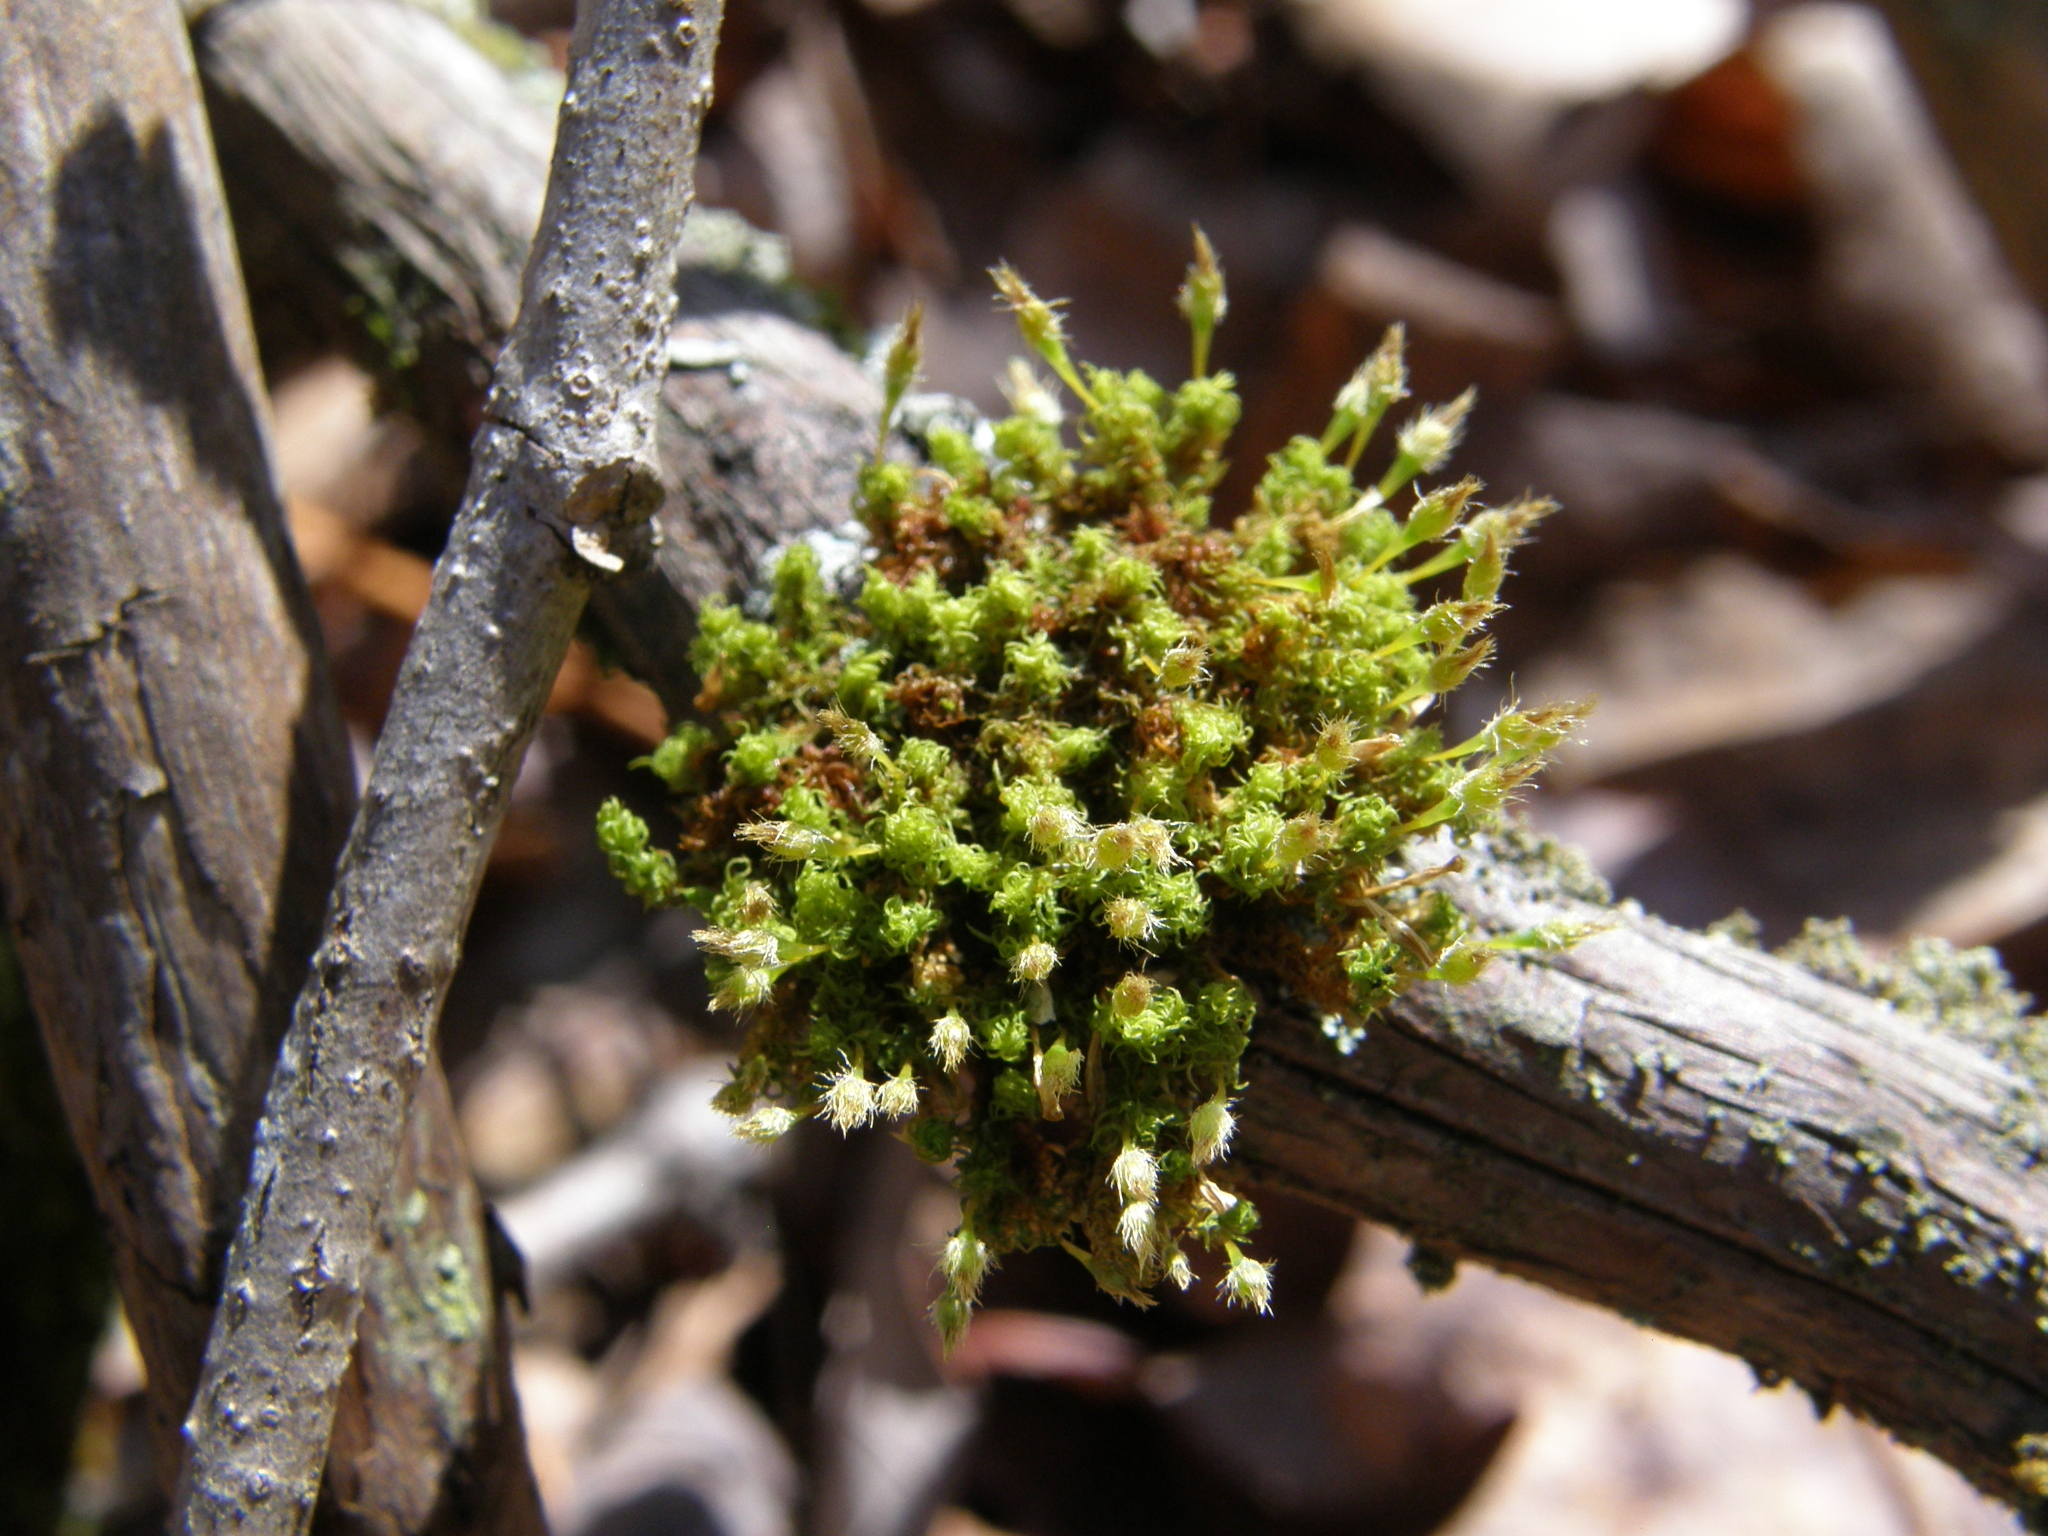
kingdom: Plantae
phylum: Bryophyta
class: Bryopsida
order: Orthotrichales
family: Orthotrichaceae
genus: Ulota
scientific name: Ulota crispa
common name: Crisped pincushion moss
